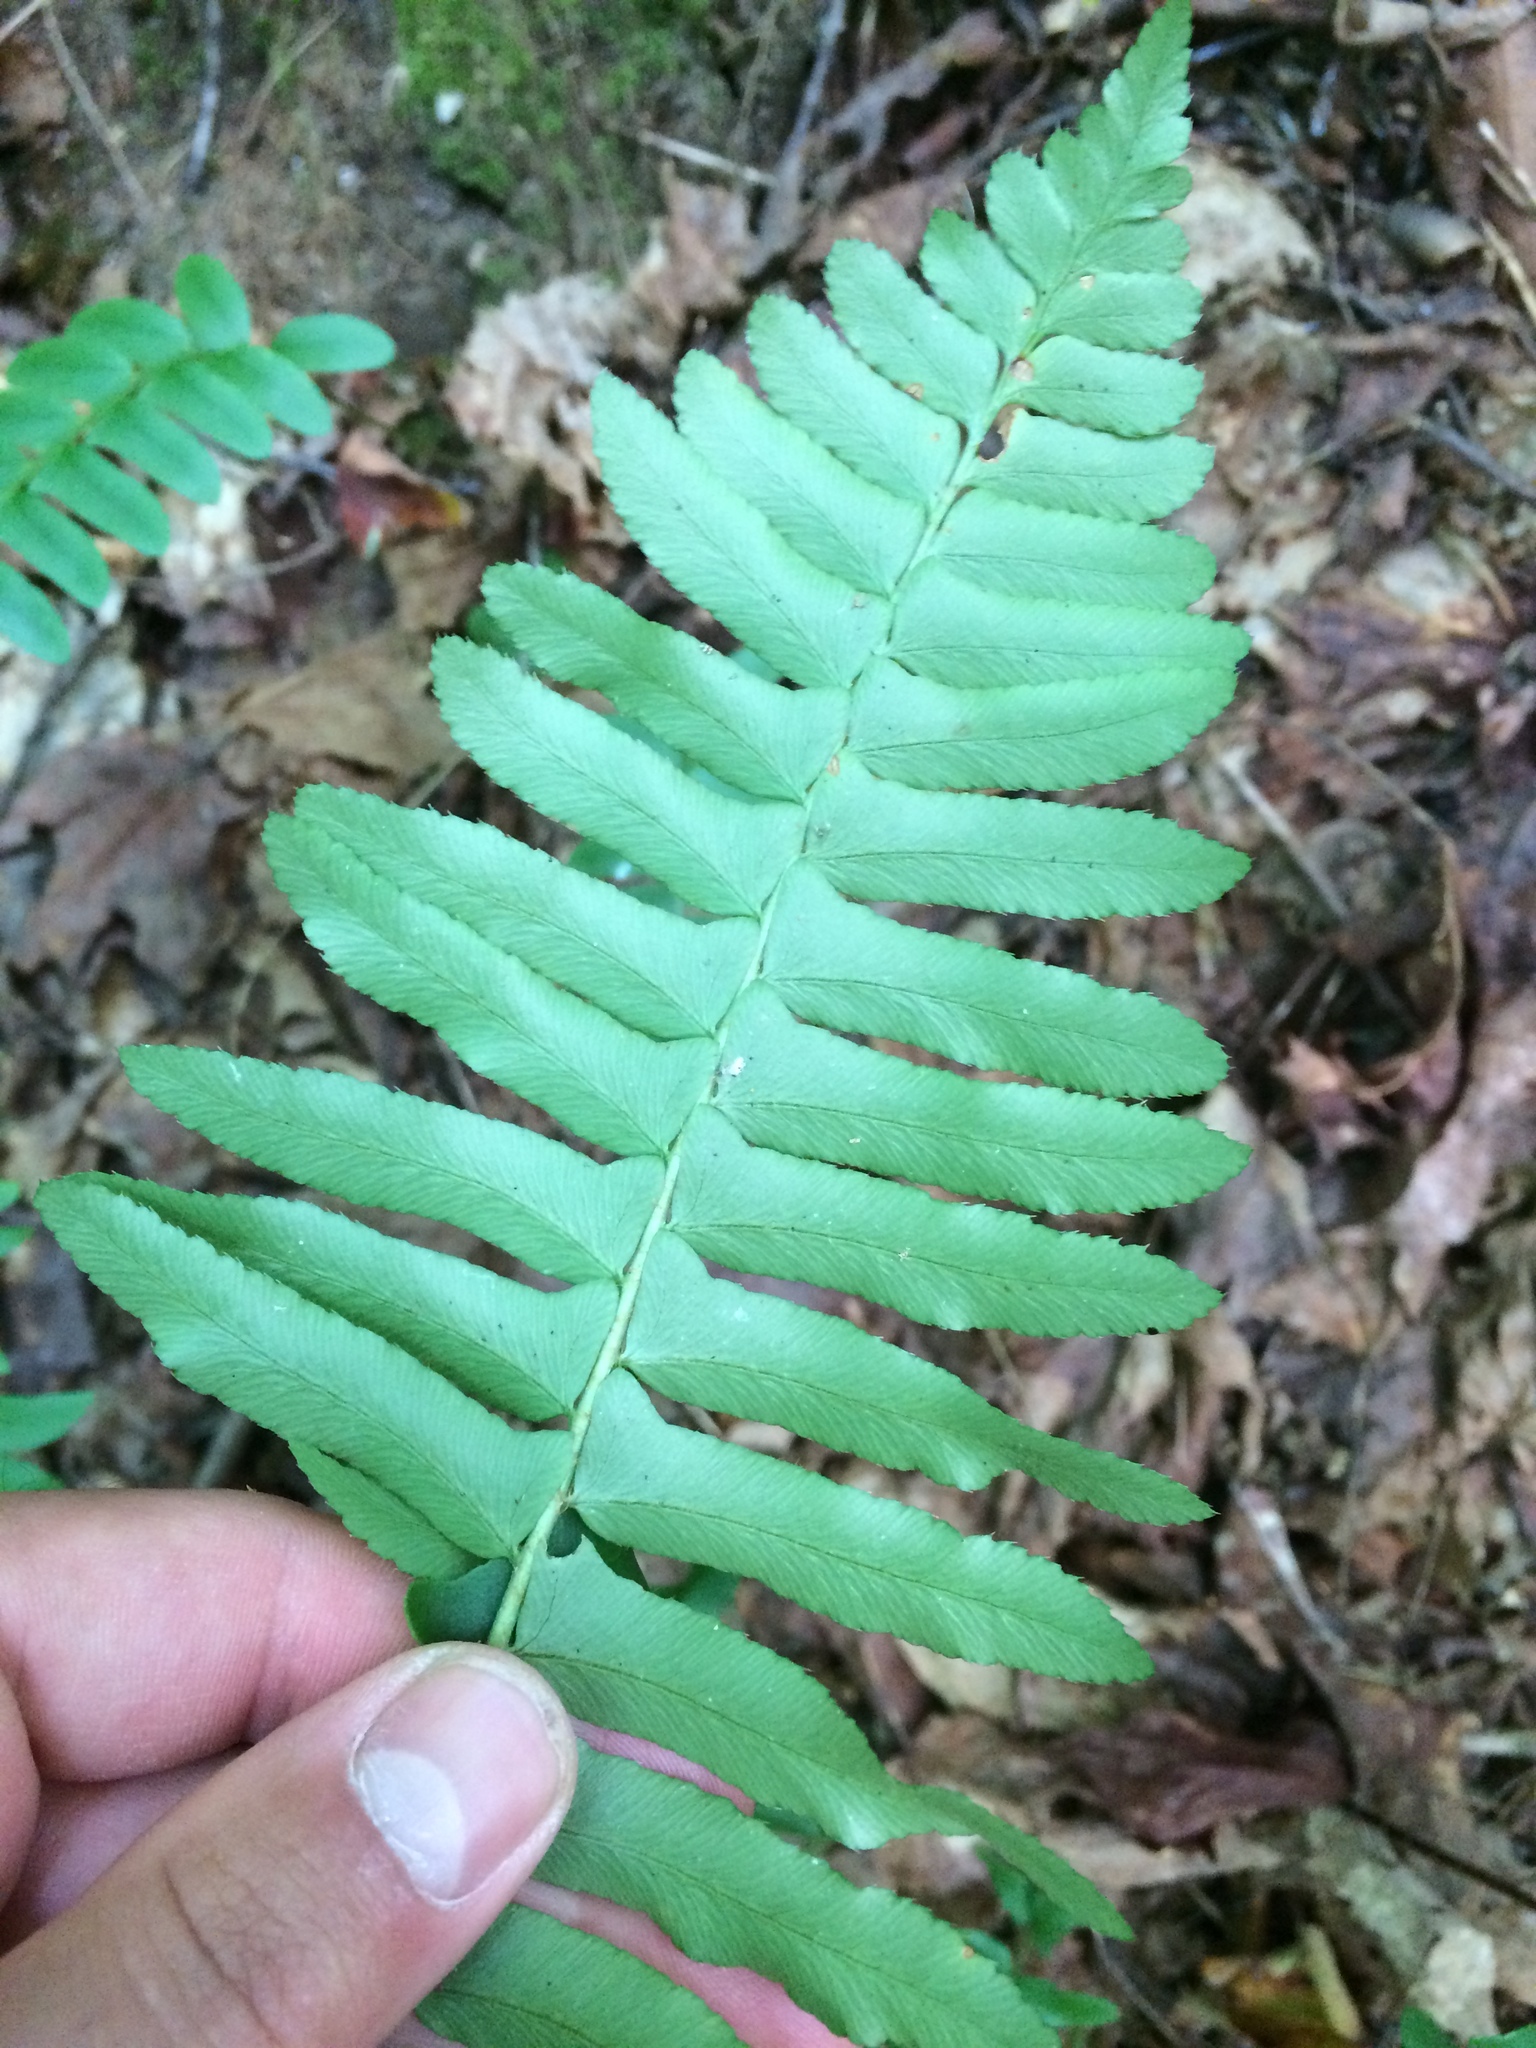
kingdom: Plantae
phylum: Tracheophyta
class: Polypodiopsida
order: Polypodiales
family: Dryopteridaceae
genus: Polystichum
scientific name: Polystichum acrostichoides
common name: Christmas fern
